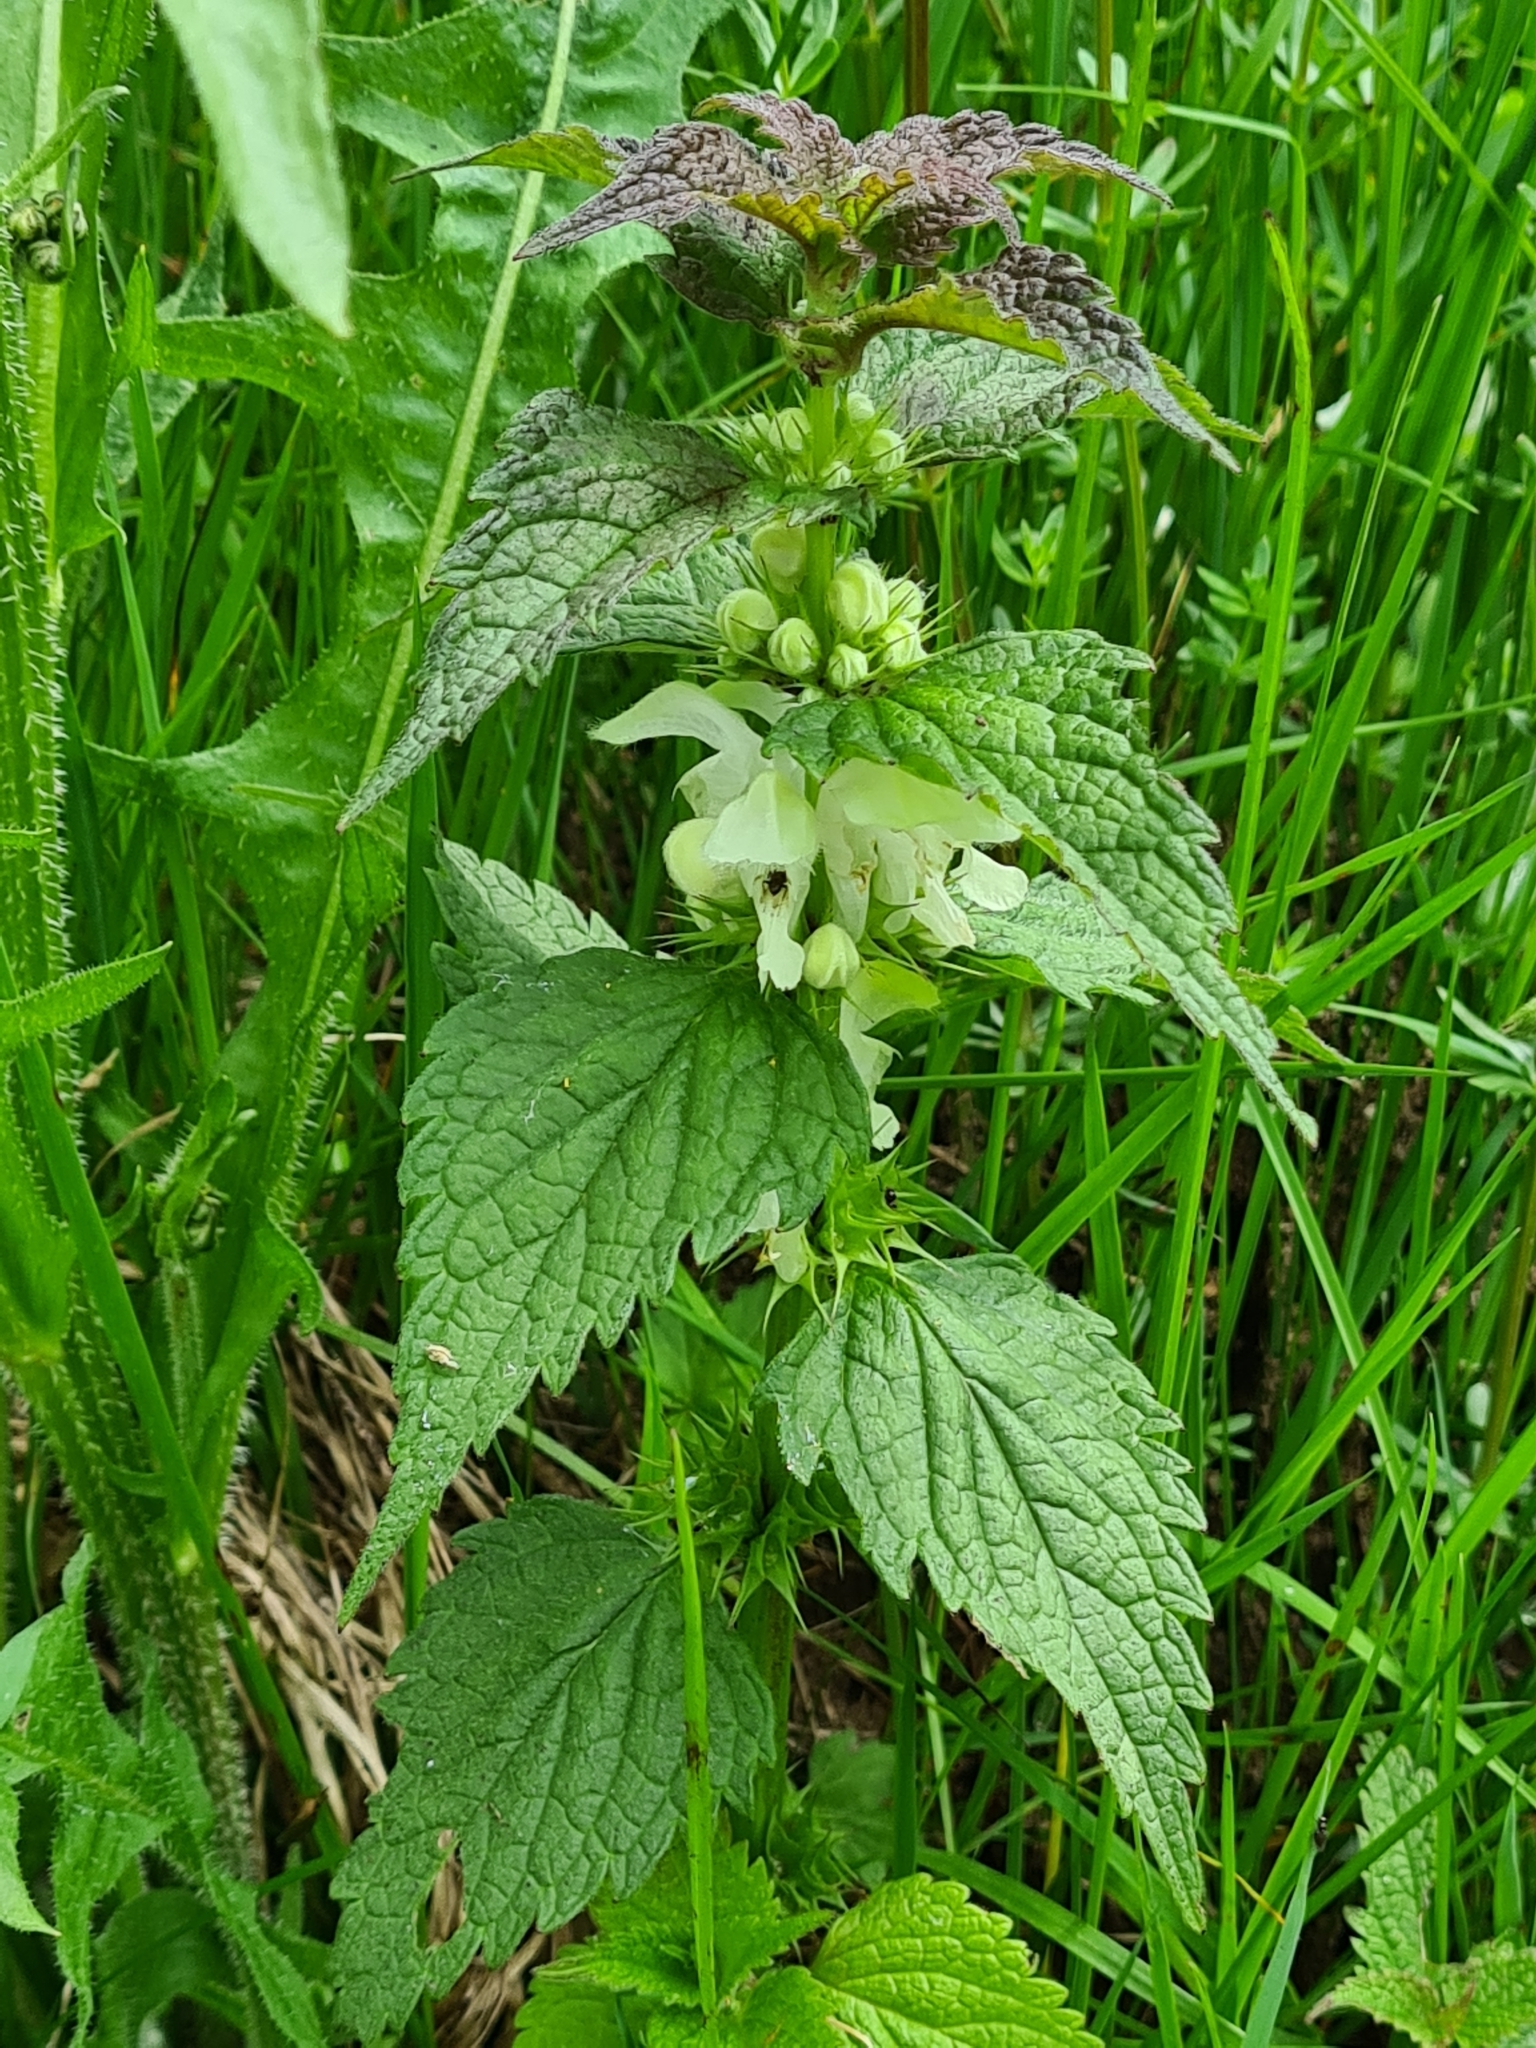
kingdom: Plantae
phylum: Tracheophyta
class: Magnoliopsida
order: Lamiales
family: Lamiaceae
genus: Lamium
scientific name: Lamium album
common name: White dead-nettle
